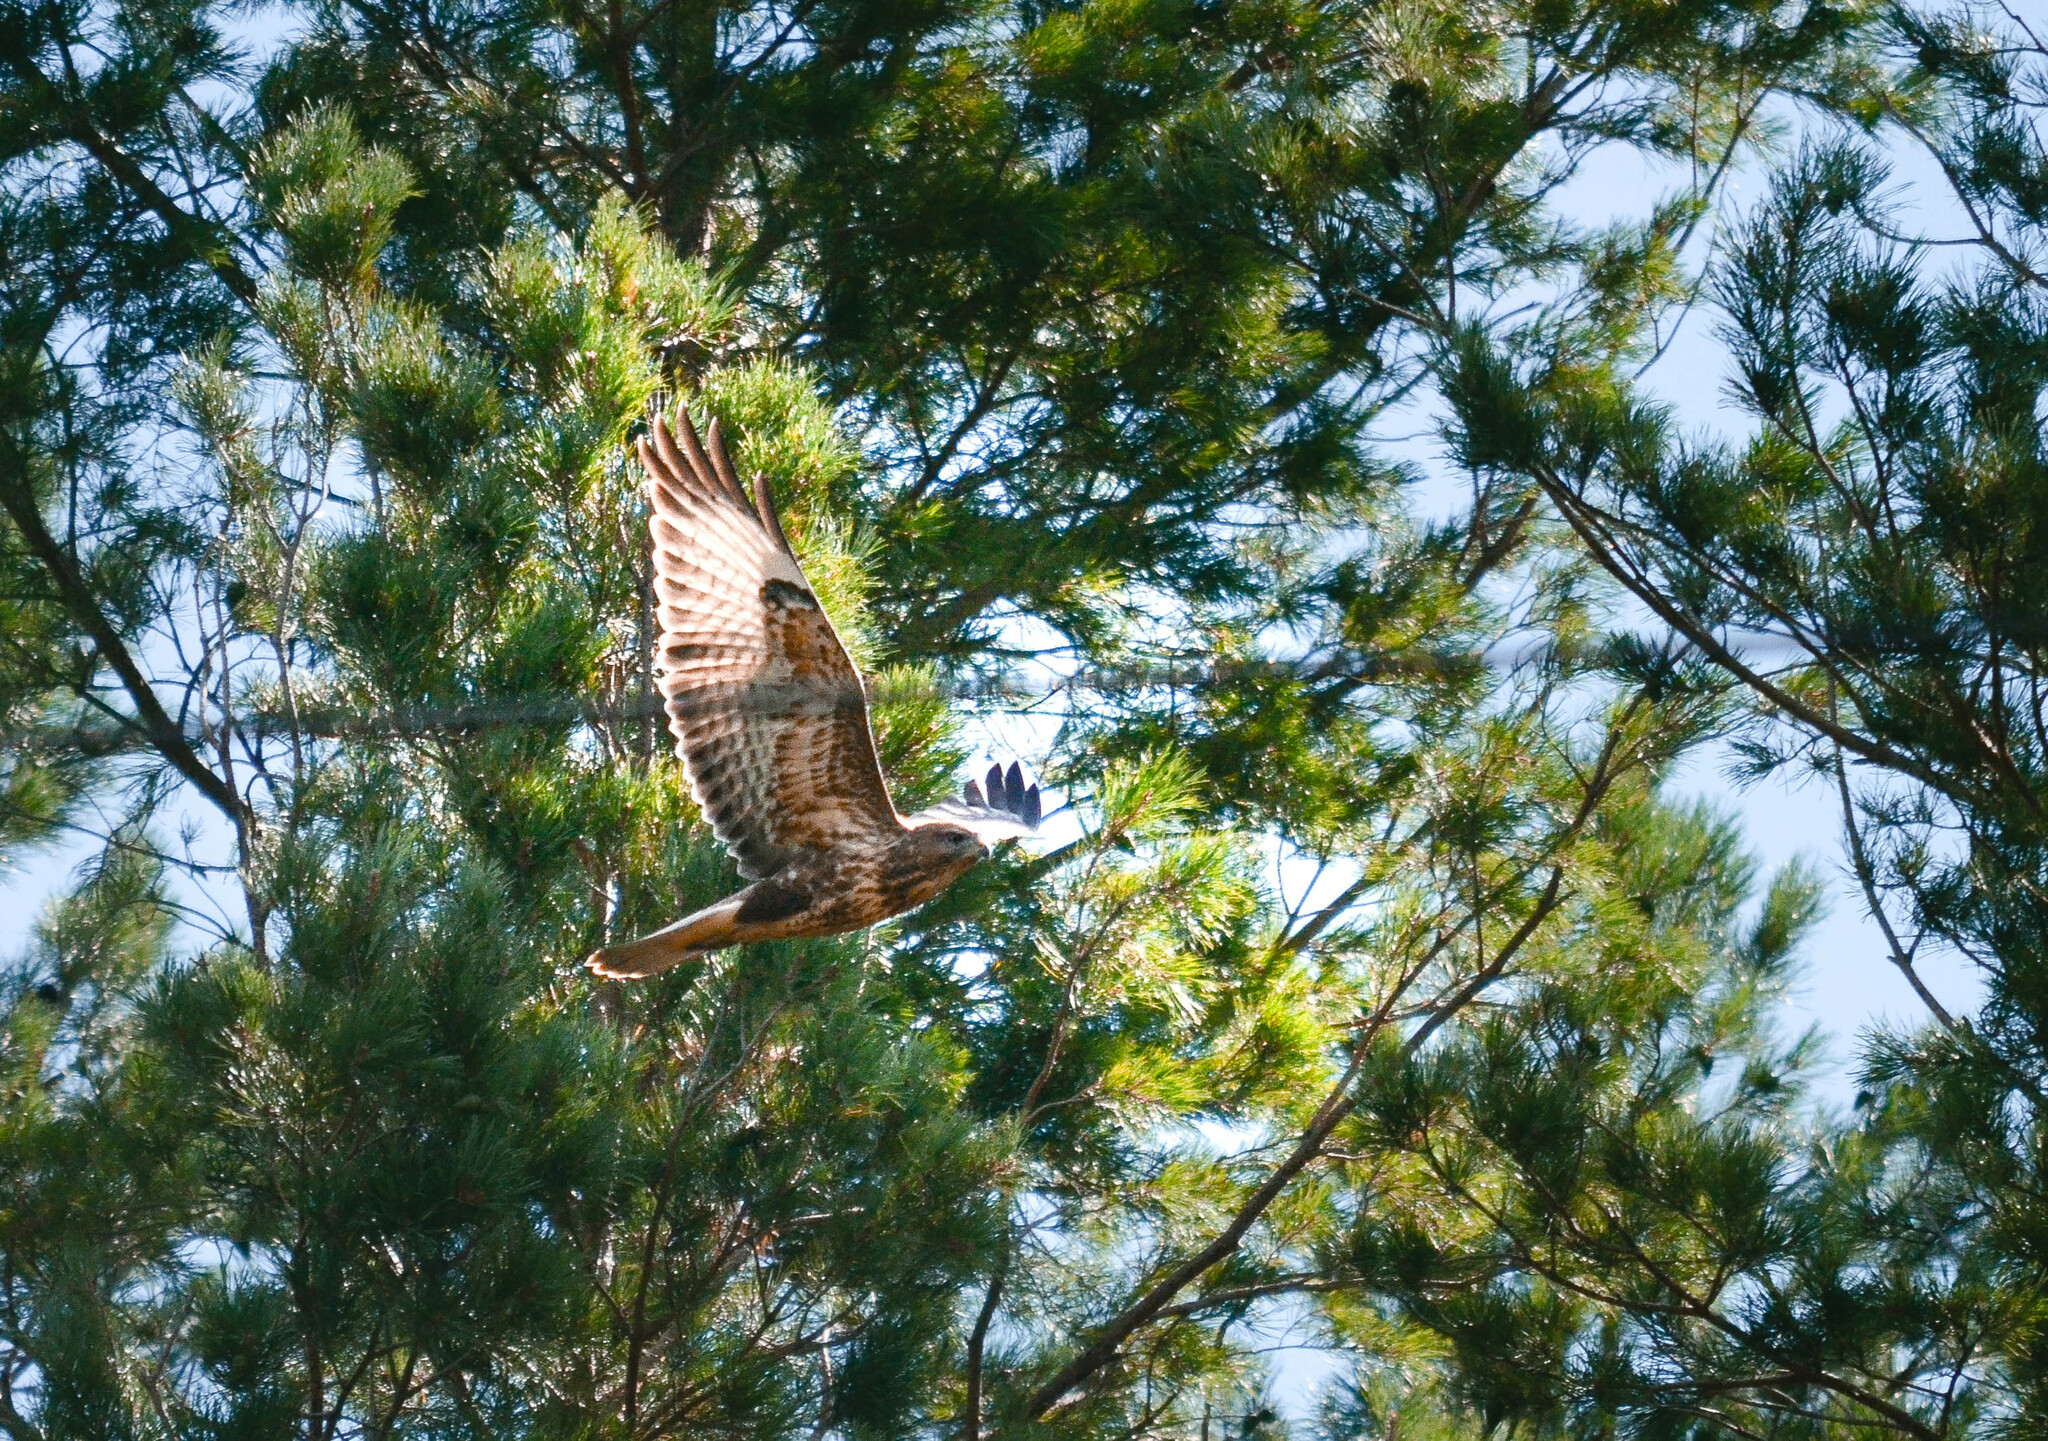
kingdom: Animalia
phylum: Chordata
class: Aves
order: Accipitriformes
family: Accipitridae
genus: Buteo
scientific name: Buteo buteo
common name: Common buzzard
